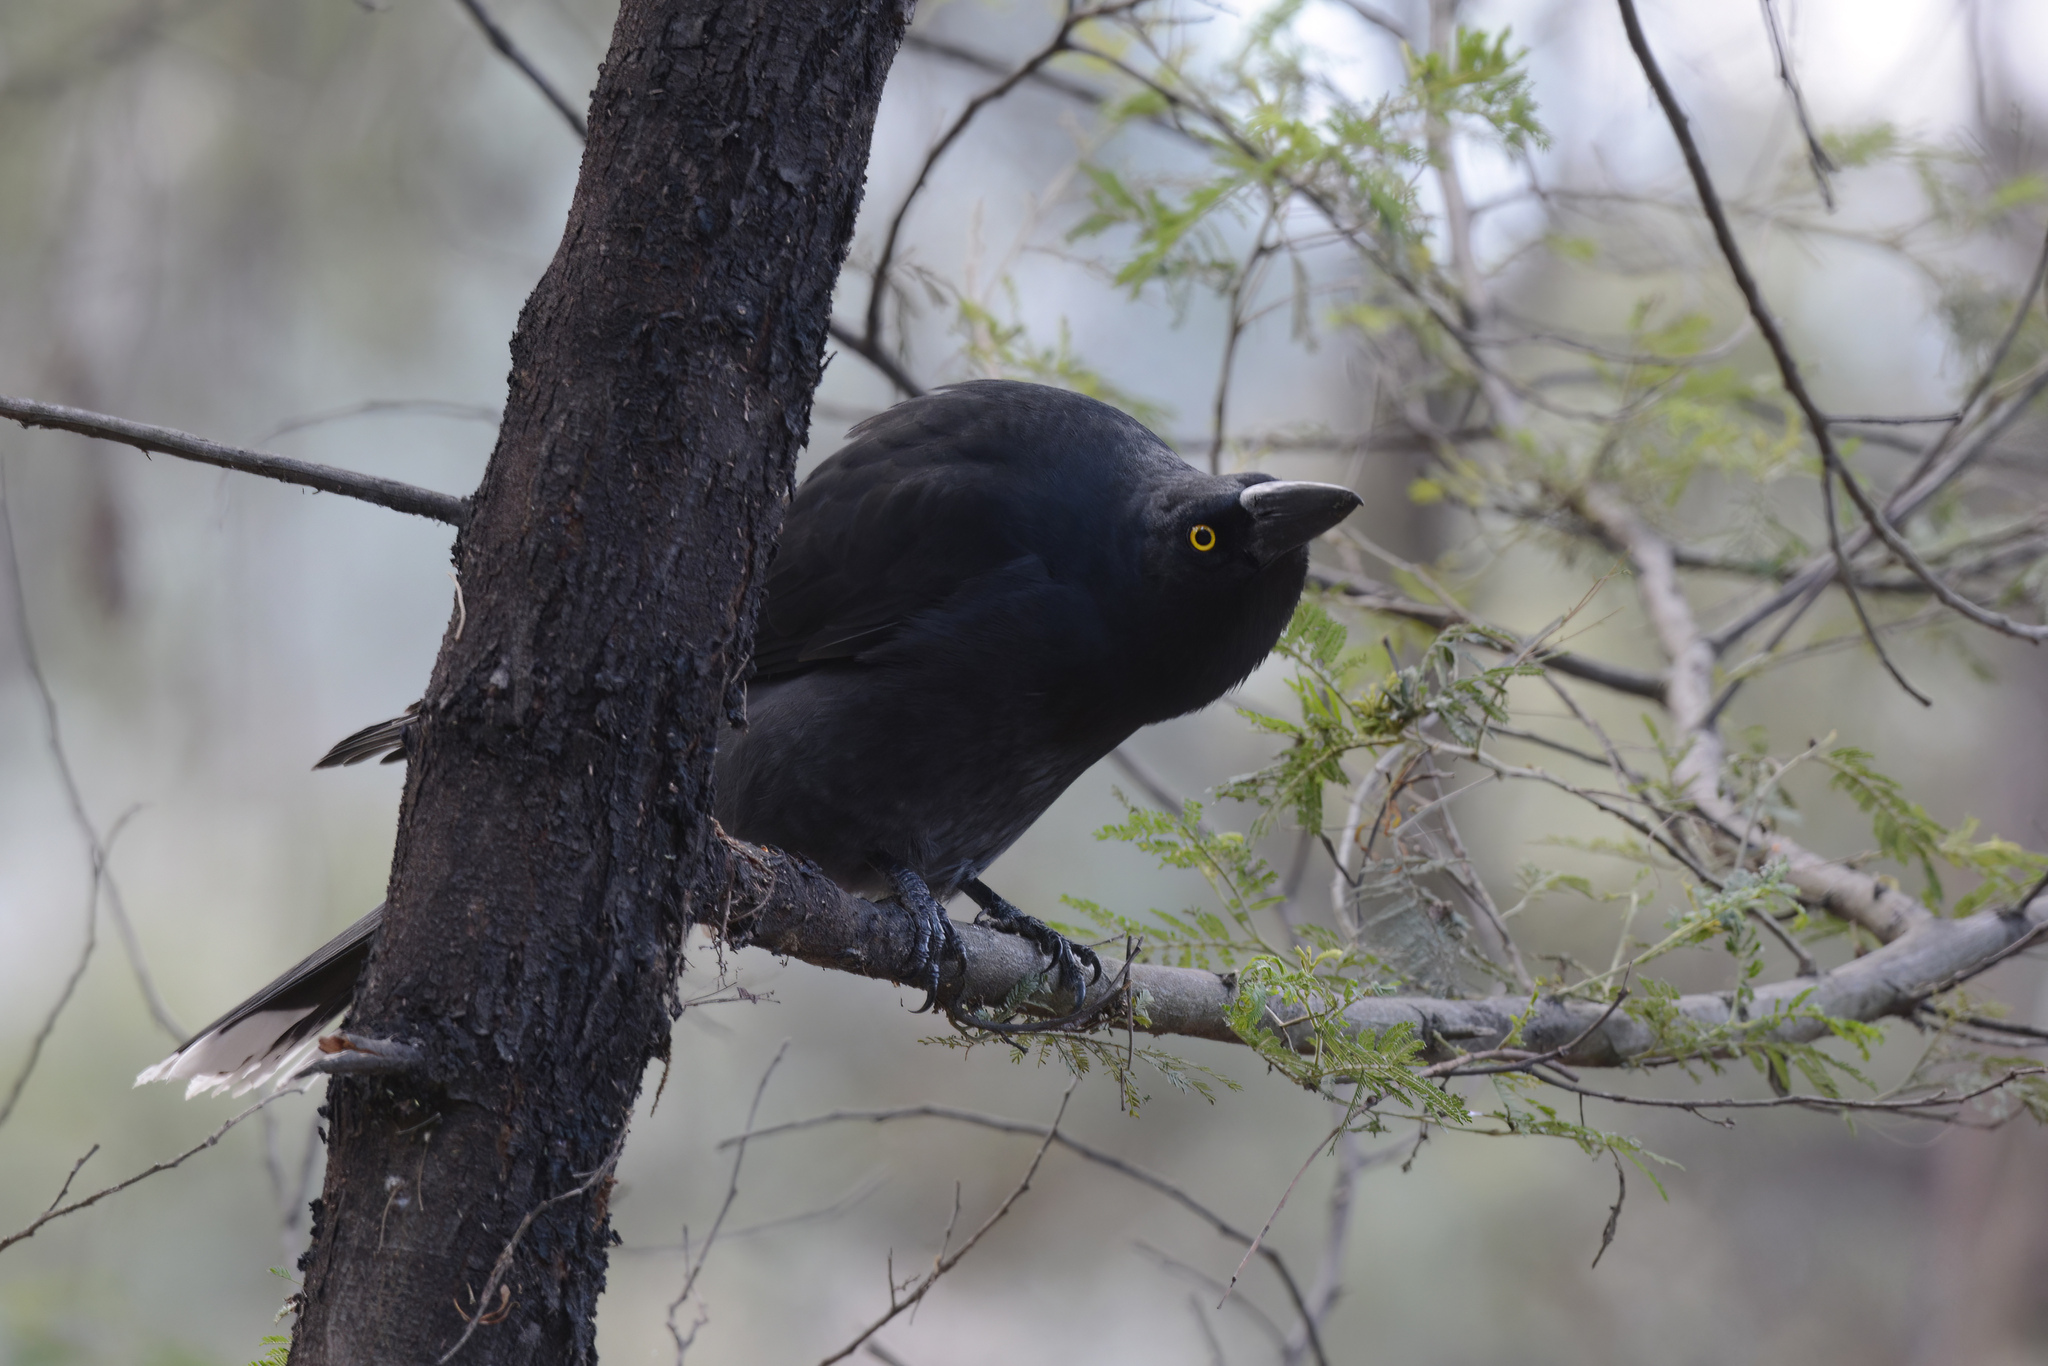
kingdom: Animalia
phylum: Chordata
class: Aves
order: Passeriformes
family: Cracticidae
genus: Strepera
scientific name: Strepera graculina
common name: Pied currawong
